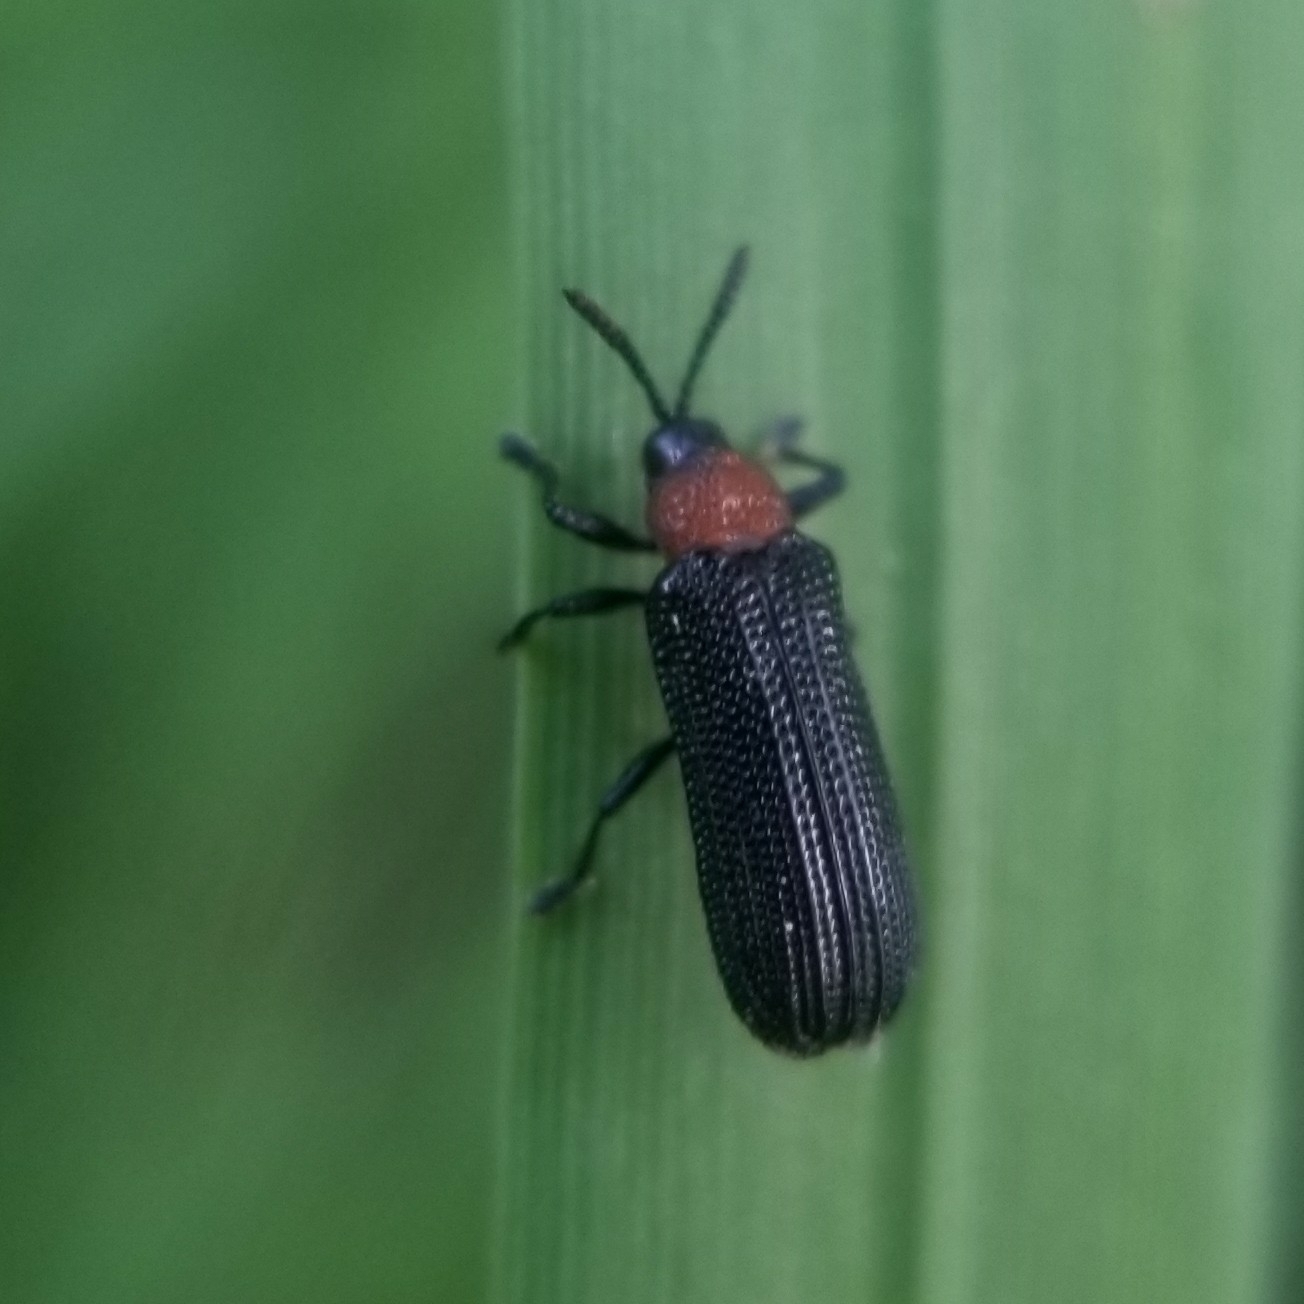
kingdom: Animalia
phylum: Arthropoda
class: Insecta
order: Coleoptera
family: Chrysomelidae
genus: Chalepus
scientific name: Chalepus walshii
